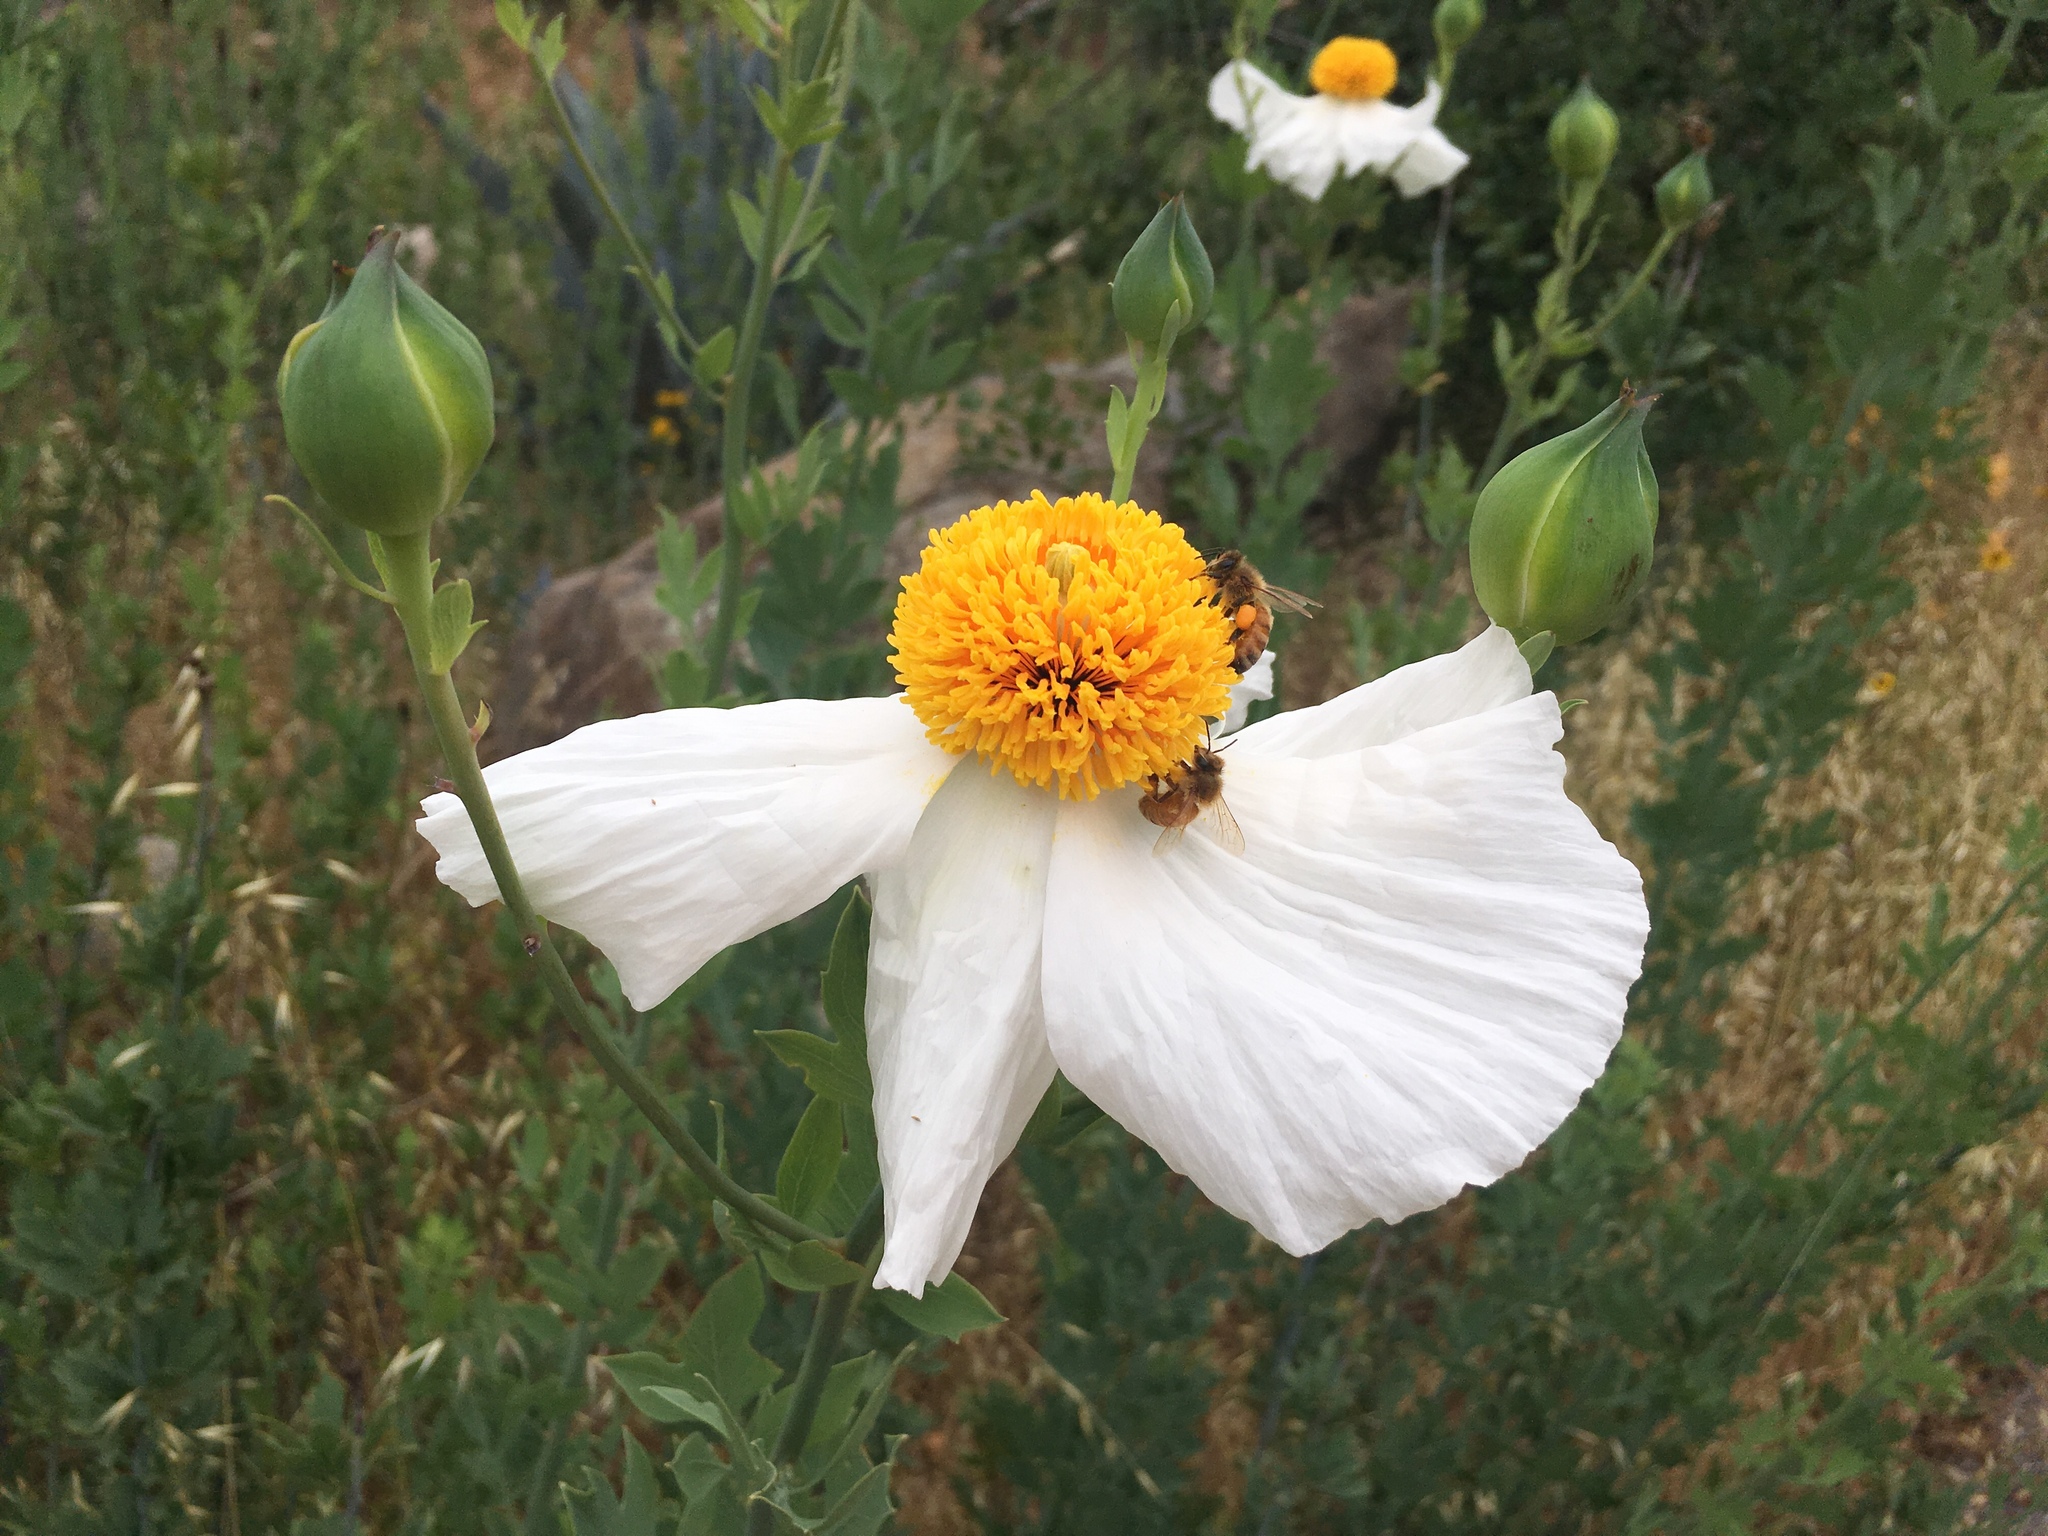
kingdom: Plantae
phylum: Tracheophyta
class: Magnoliopsida
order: Ranunculales
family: Papaveraceae
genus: Romneya
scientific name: Romneya coulteri
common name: California tree-poppy
